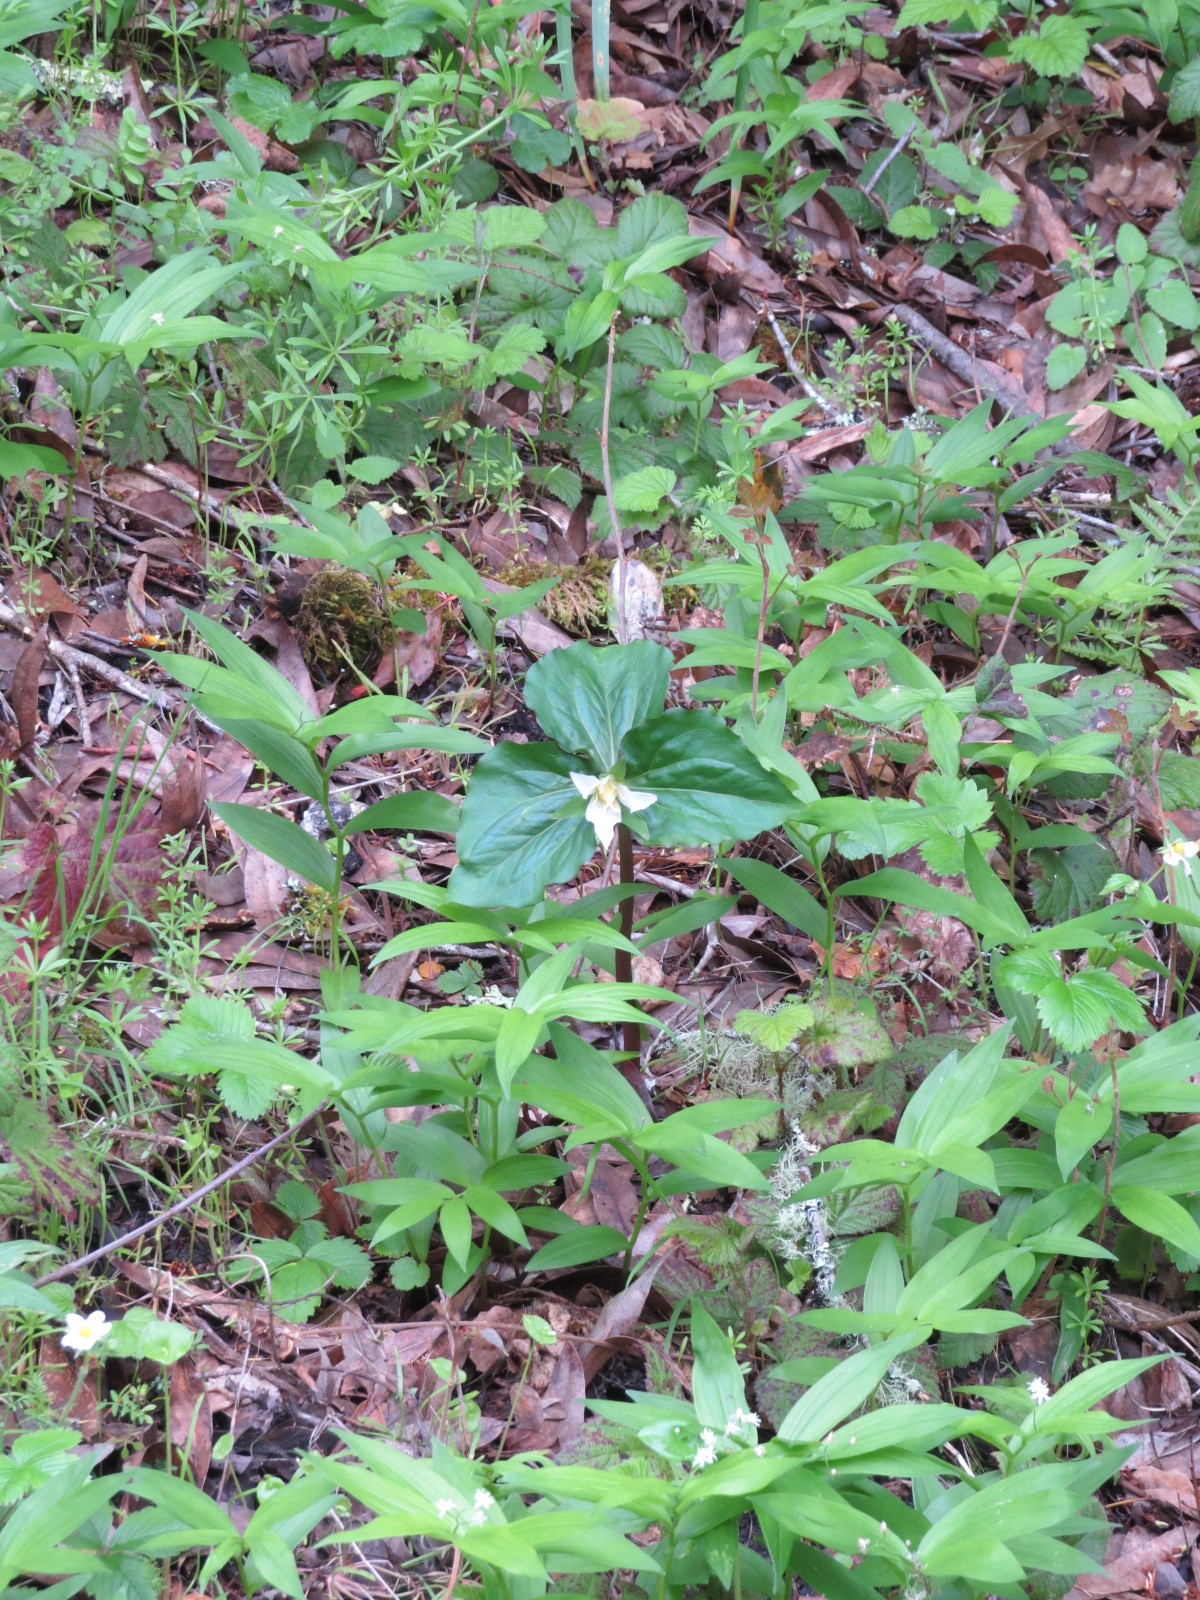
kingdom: Plantae
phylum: Tracheophyta
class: Liliopsida
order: Liliales
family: Melanthiaceae
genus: Trillium
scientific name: Trillium ovatum
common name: Pacific trillium
